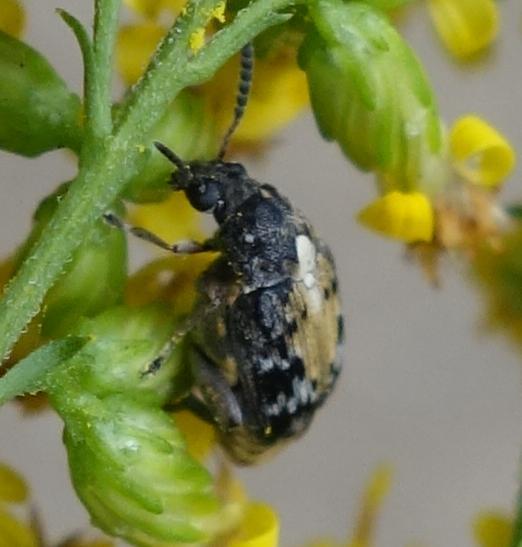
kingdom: Animalia
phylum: Arthropoda
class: Insecta
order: Coleoptera
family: Chrysomelidae
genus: Megabruchidius
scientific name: Megabruchidius dorsalis
